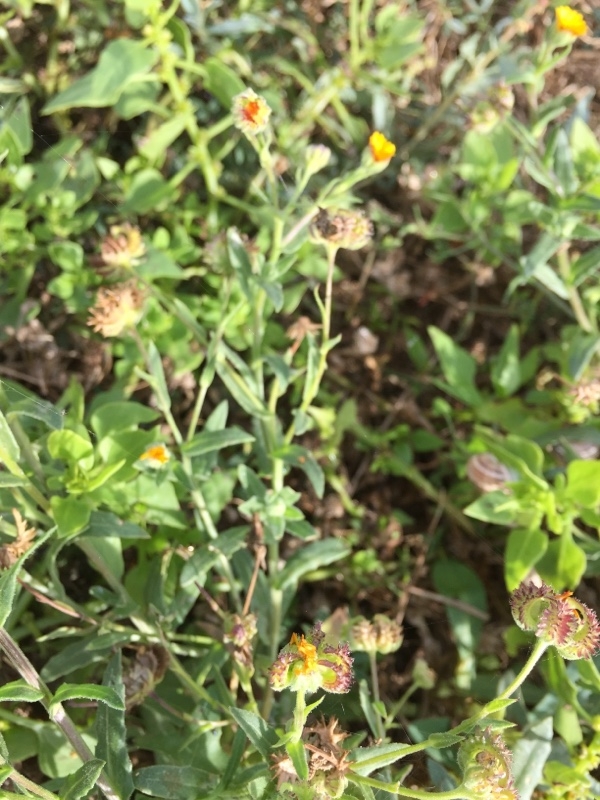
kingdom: Plantae
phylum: Tracheophyta
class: Magnoliopsida
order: Asterales
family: Asteraceae
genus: Calendula
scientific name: Calendula arvensis
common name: Field marigold
